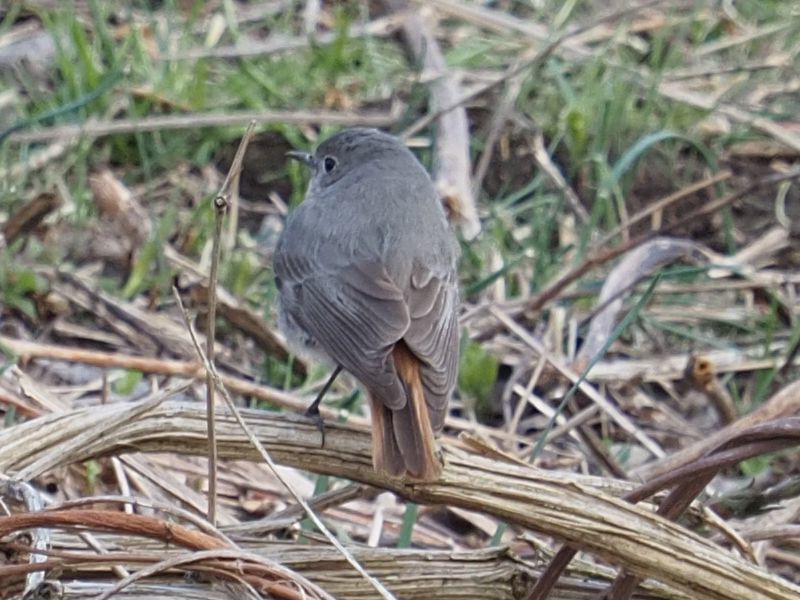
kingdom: Animalia
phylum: Chordata
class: Aves
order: Passeriformes
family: Muscicapidae
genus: Phoenicurus
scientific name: Phoenicurus ochruros
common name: Black redstart
